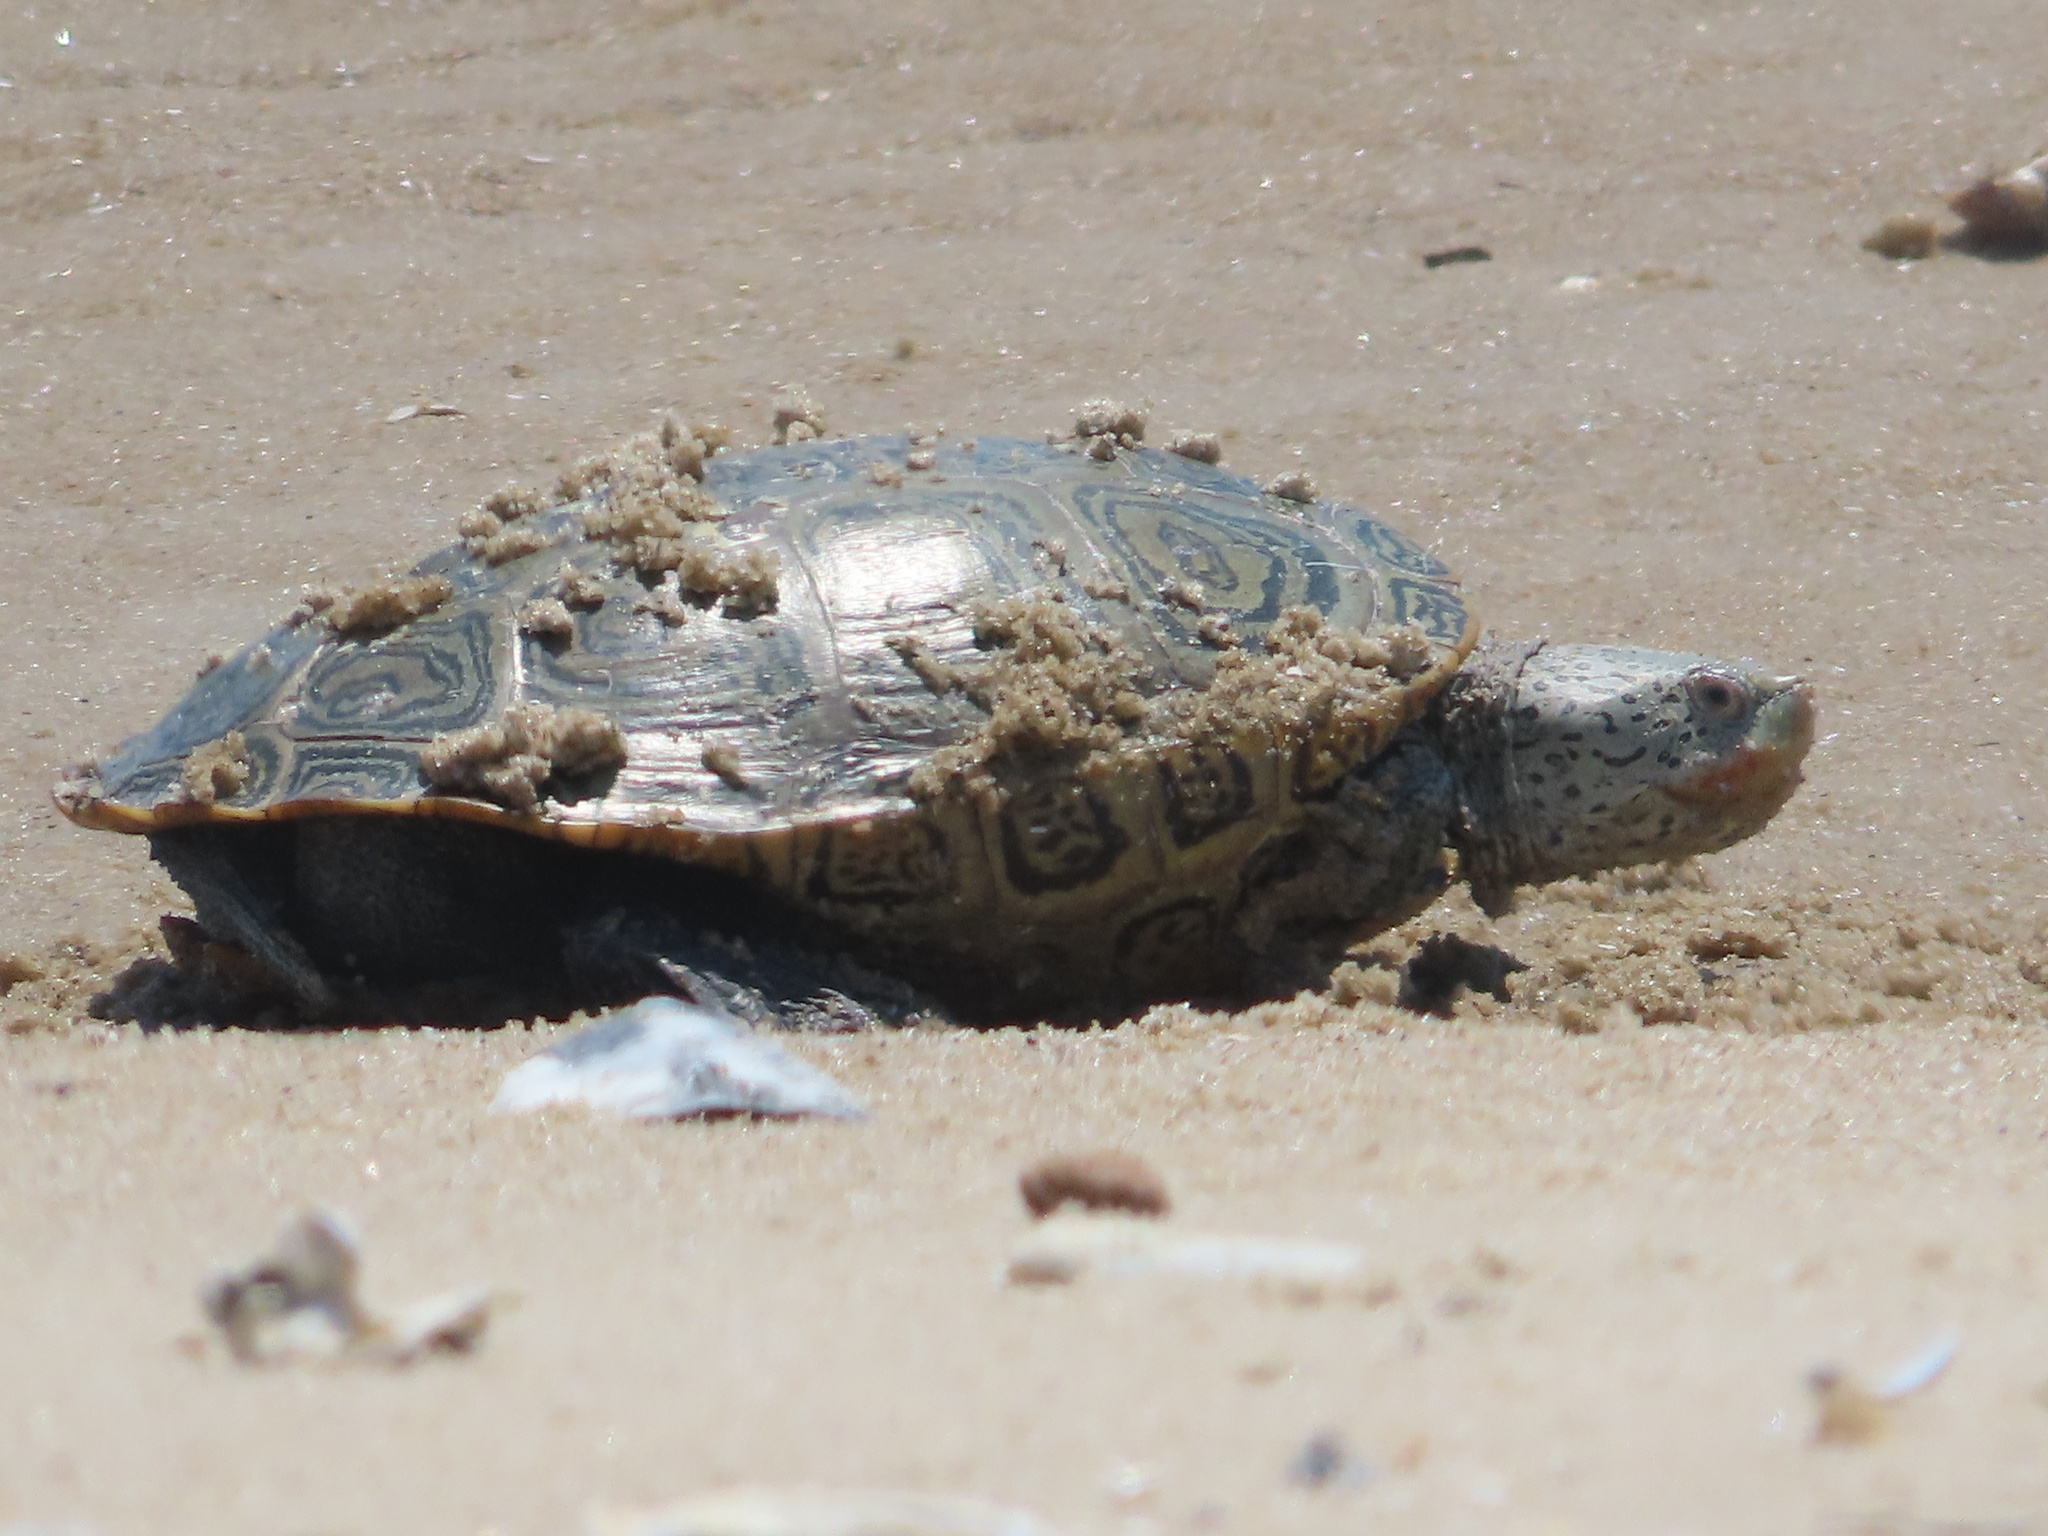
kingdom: Animalia
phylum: Chordata
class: Testudines
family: Emydidae
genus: Malaclemys
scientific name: Malaclemys terrapin
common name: Diamondback terrapin
